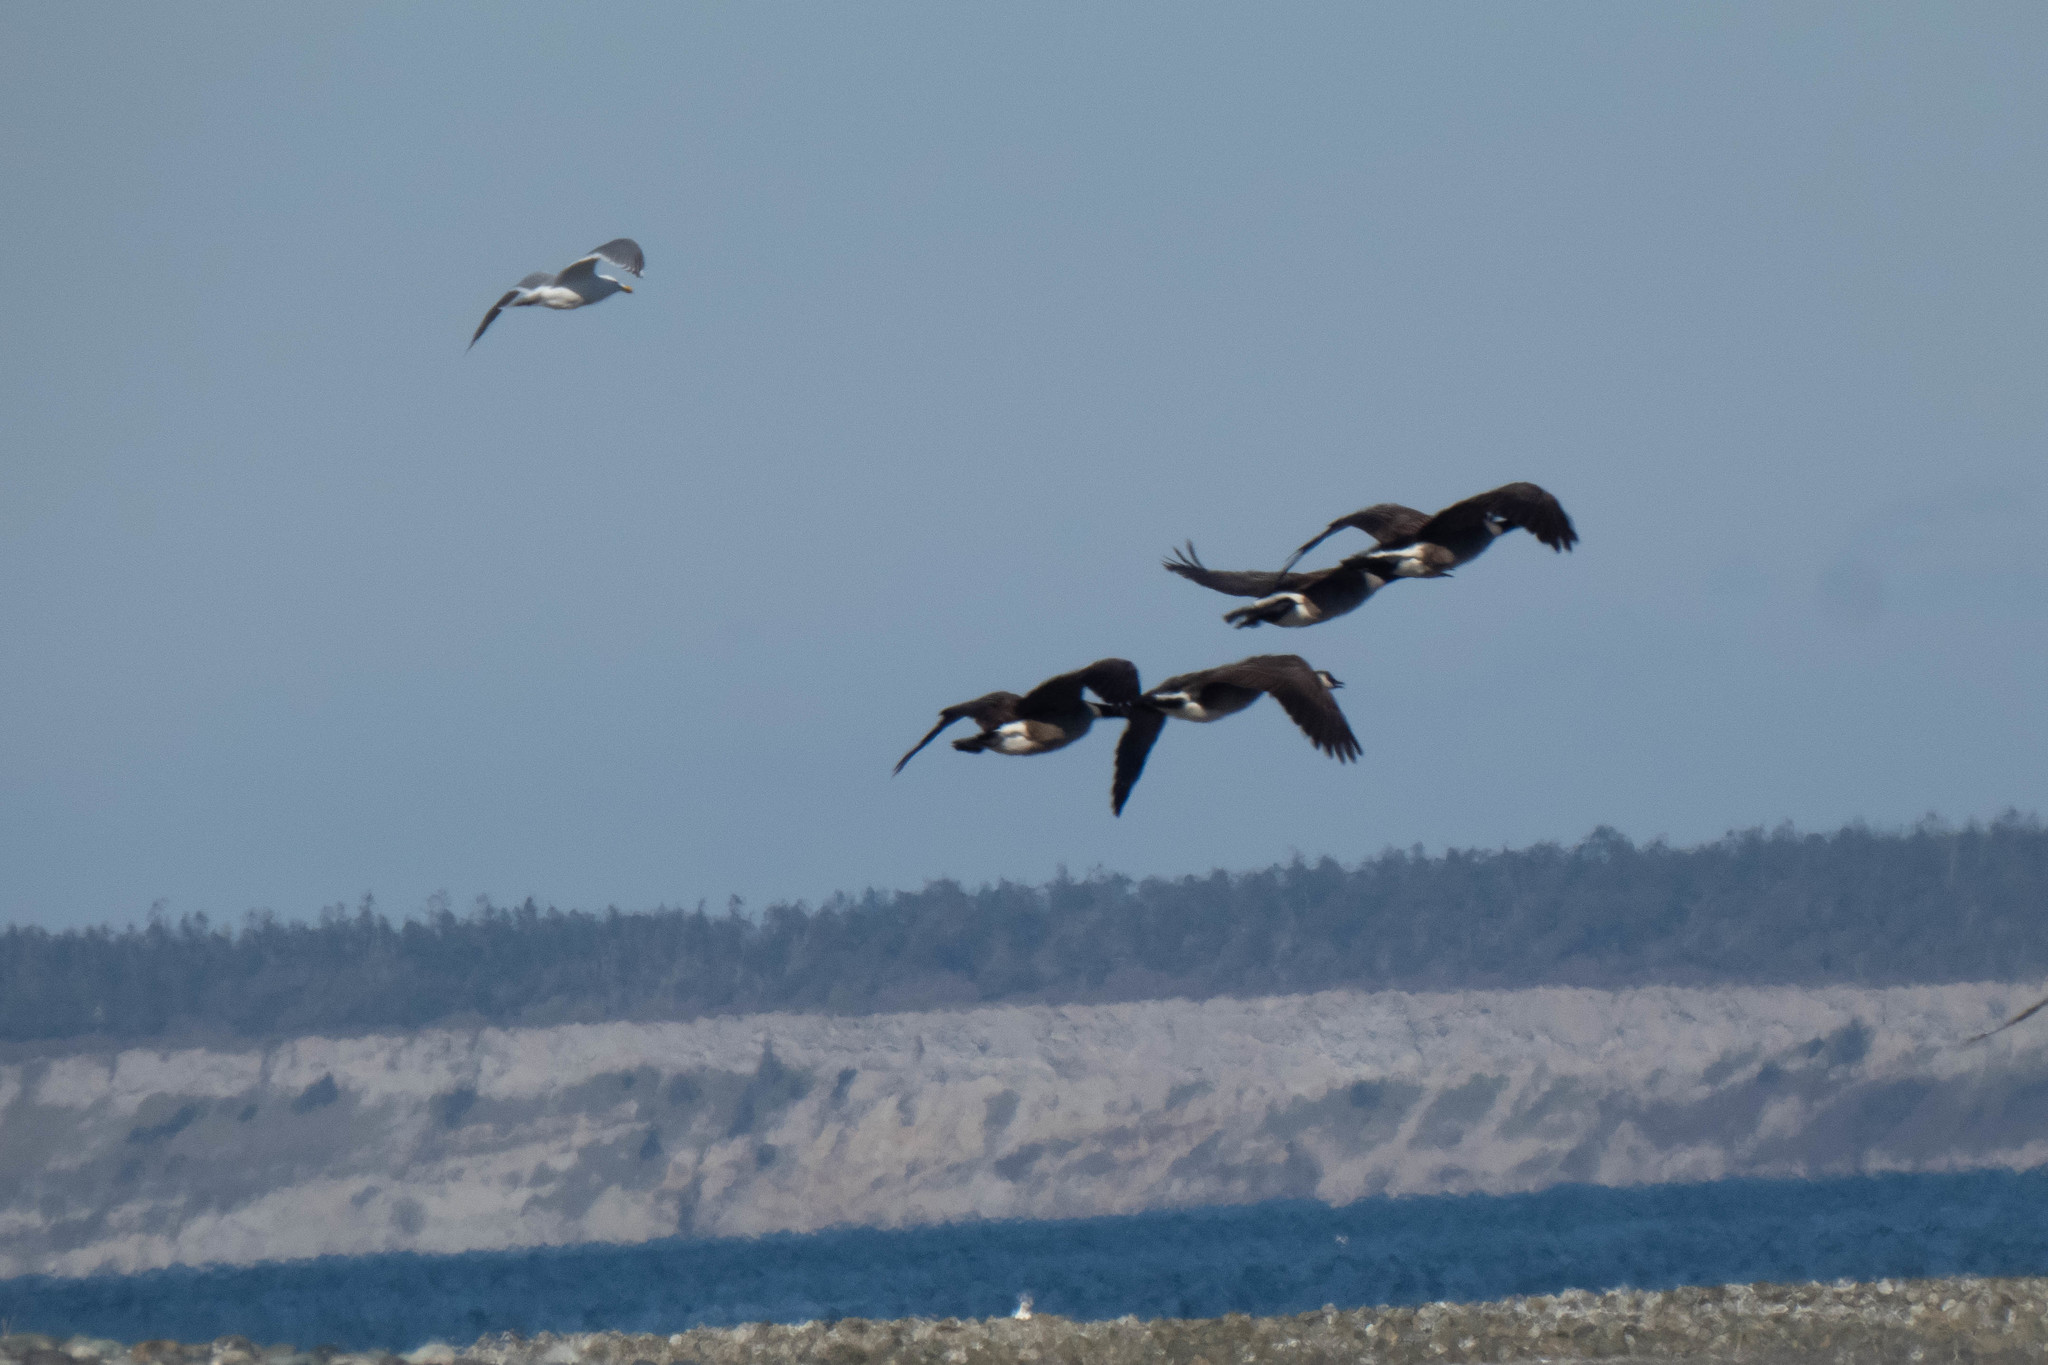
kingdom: Animalia
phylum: Chordata
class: Aves
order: Anseriformes
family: Anatidae
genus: Branta
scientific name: Branta canadensis
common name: Canada goose
